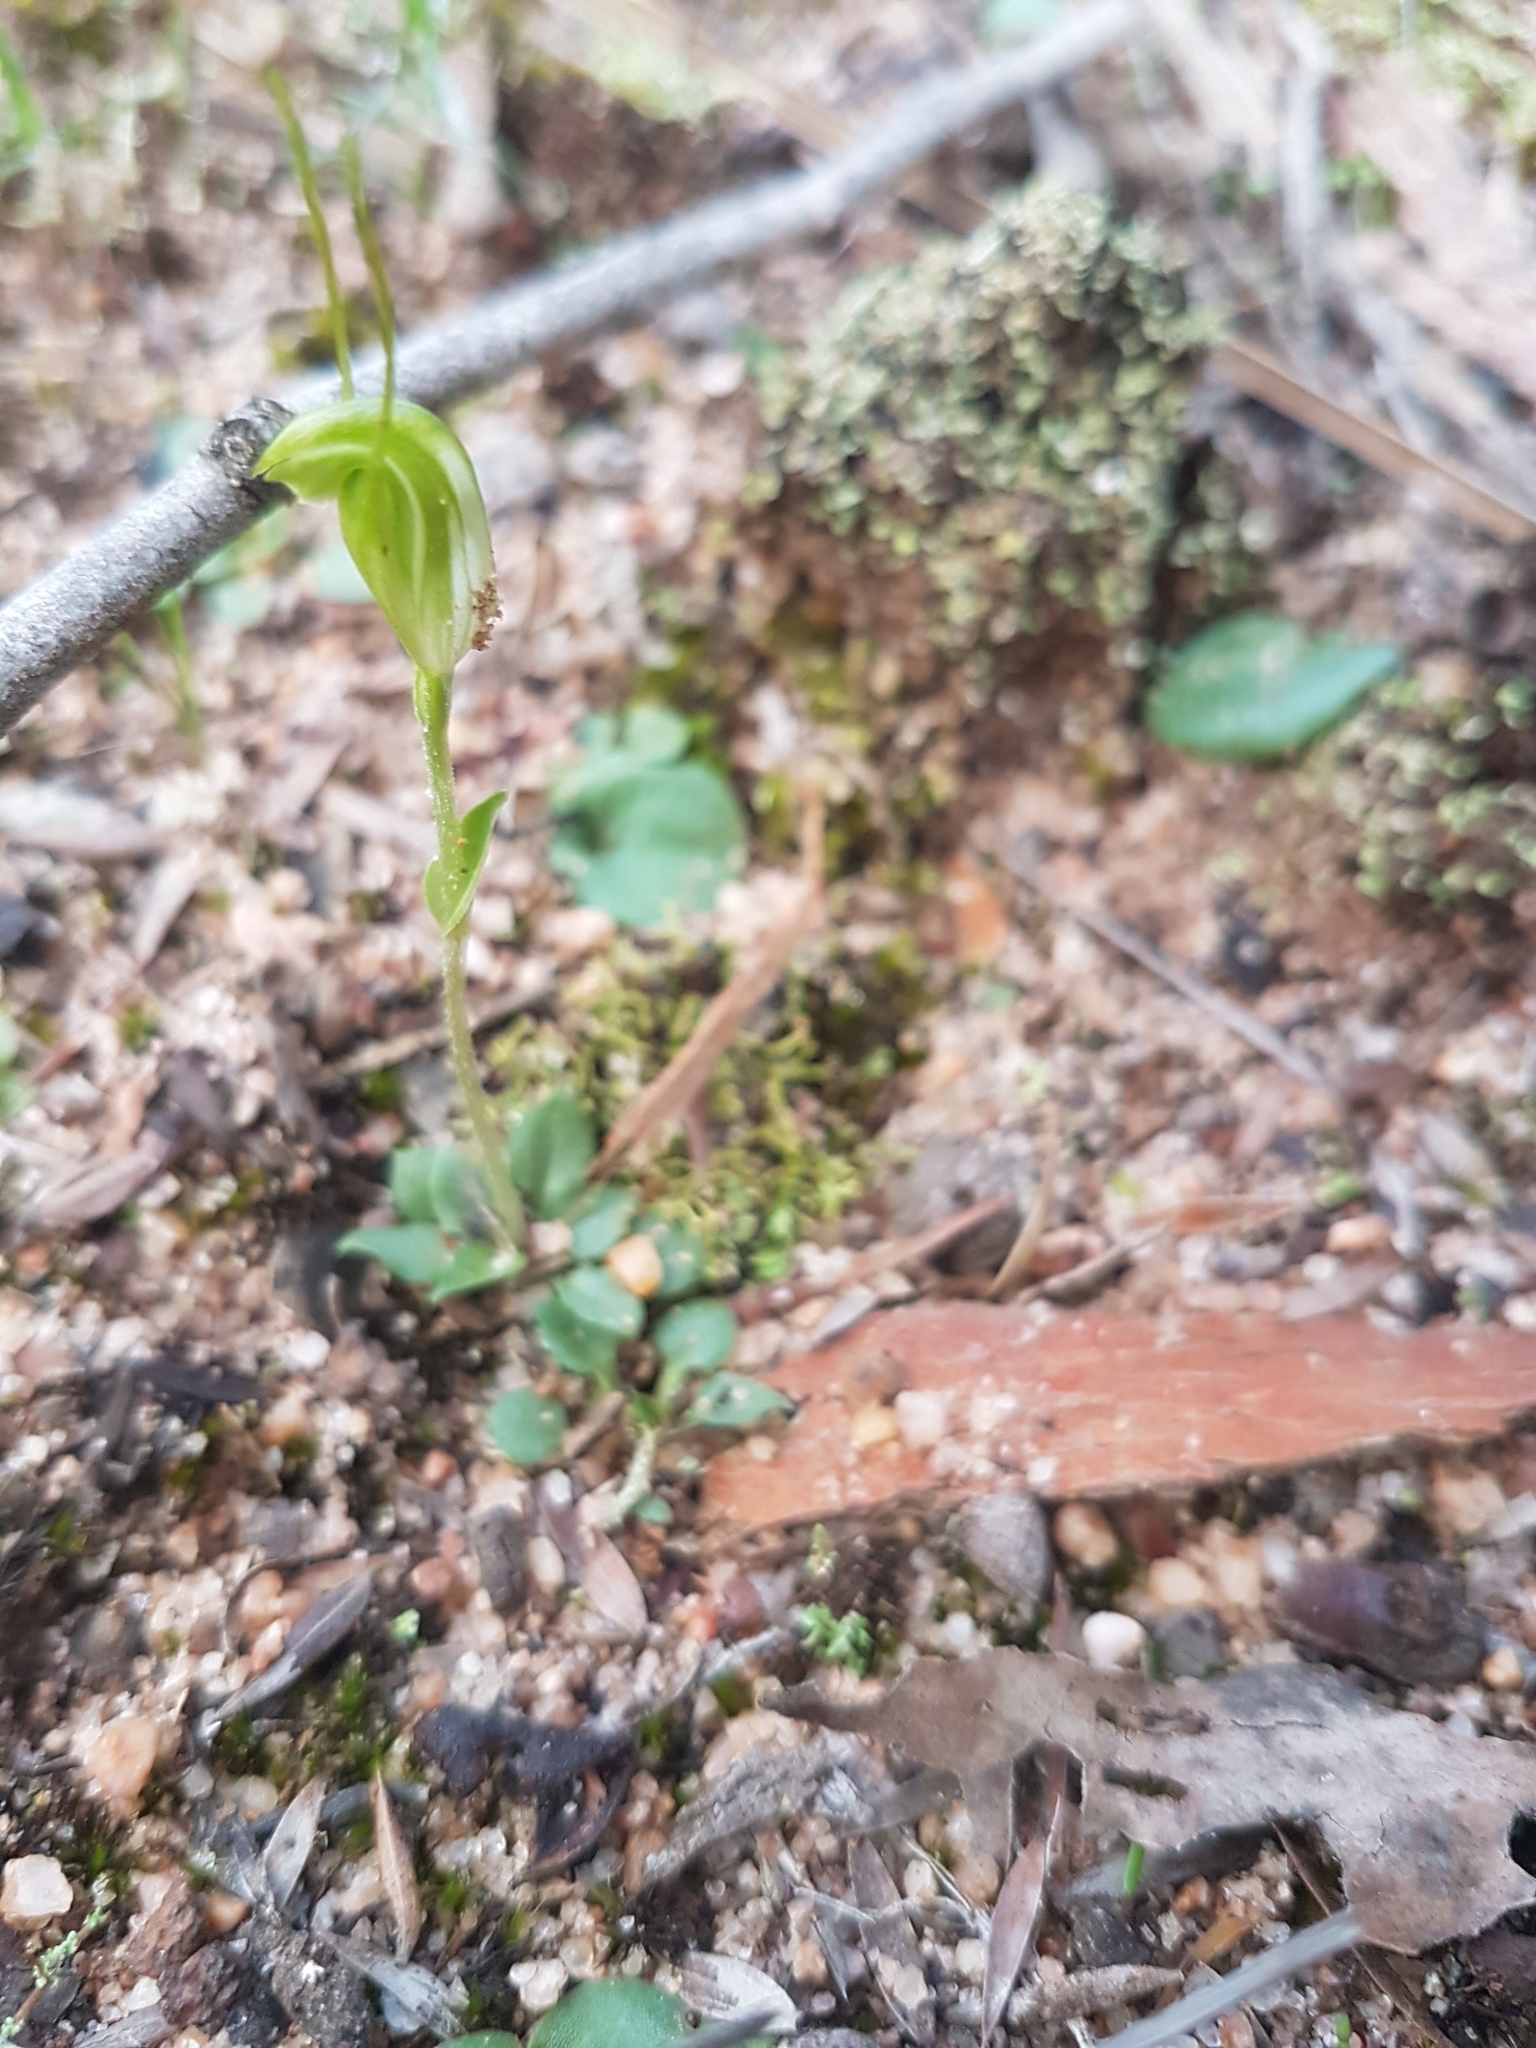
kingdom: Plantae
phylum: Tracheophyta
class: Liliopsida
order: Asparagales
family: Orchidaceae
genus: Pterostylis
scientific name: Pterostylis nana
